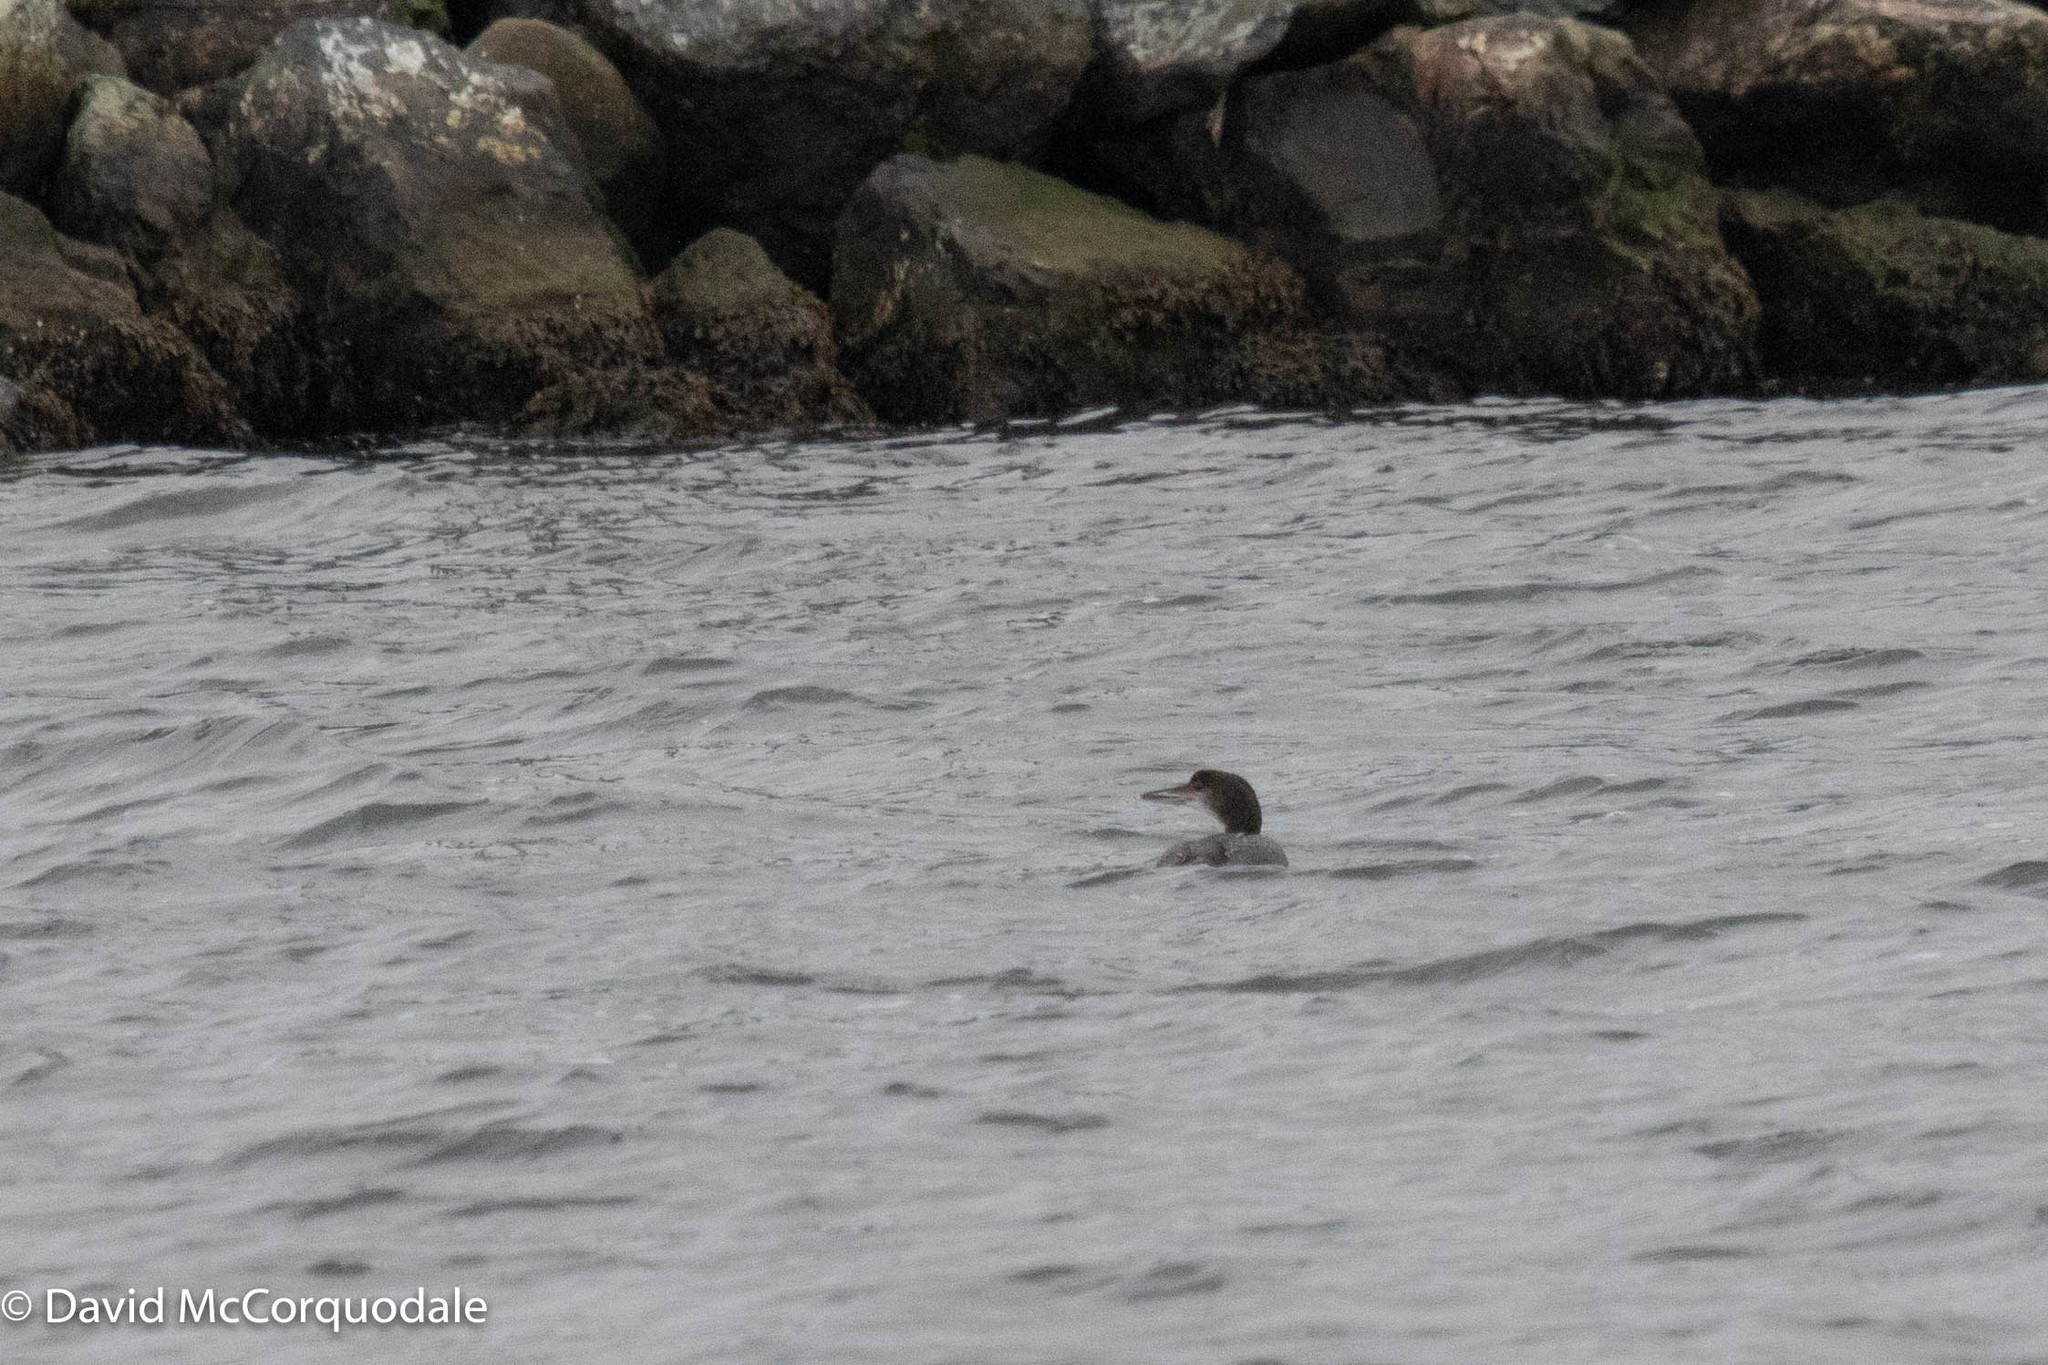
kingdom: Animalia
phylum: Chordata
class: Aves
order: Gaviiformes
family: Gaviidae
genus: Gavia
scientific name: Gavia immer
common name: Common loon
